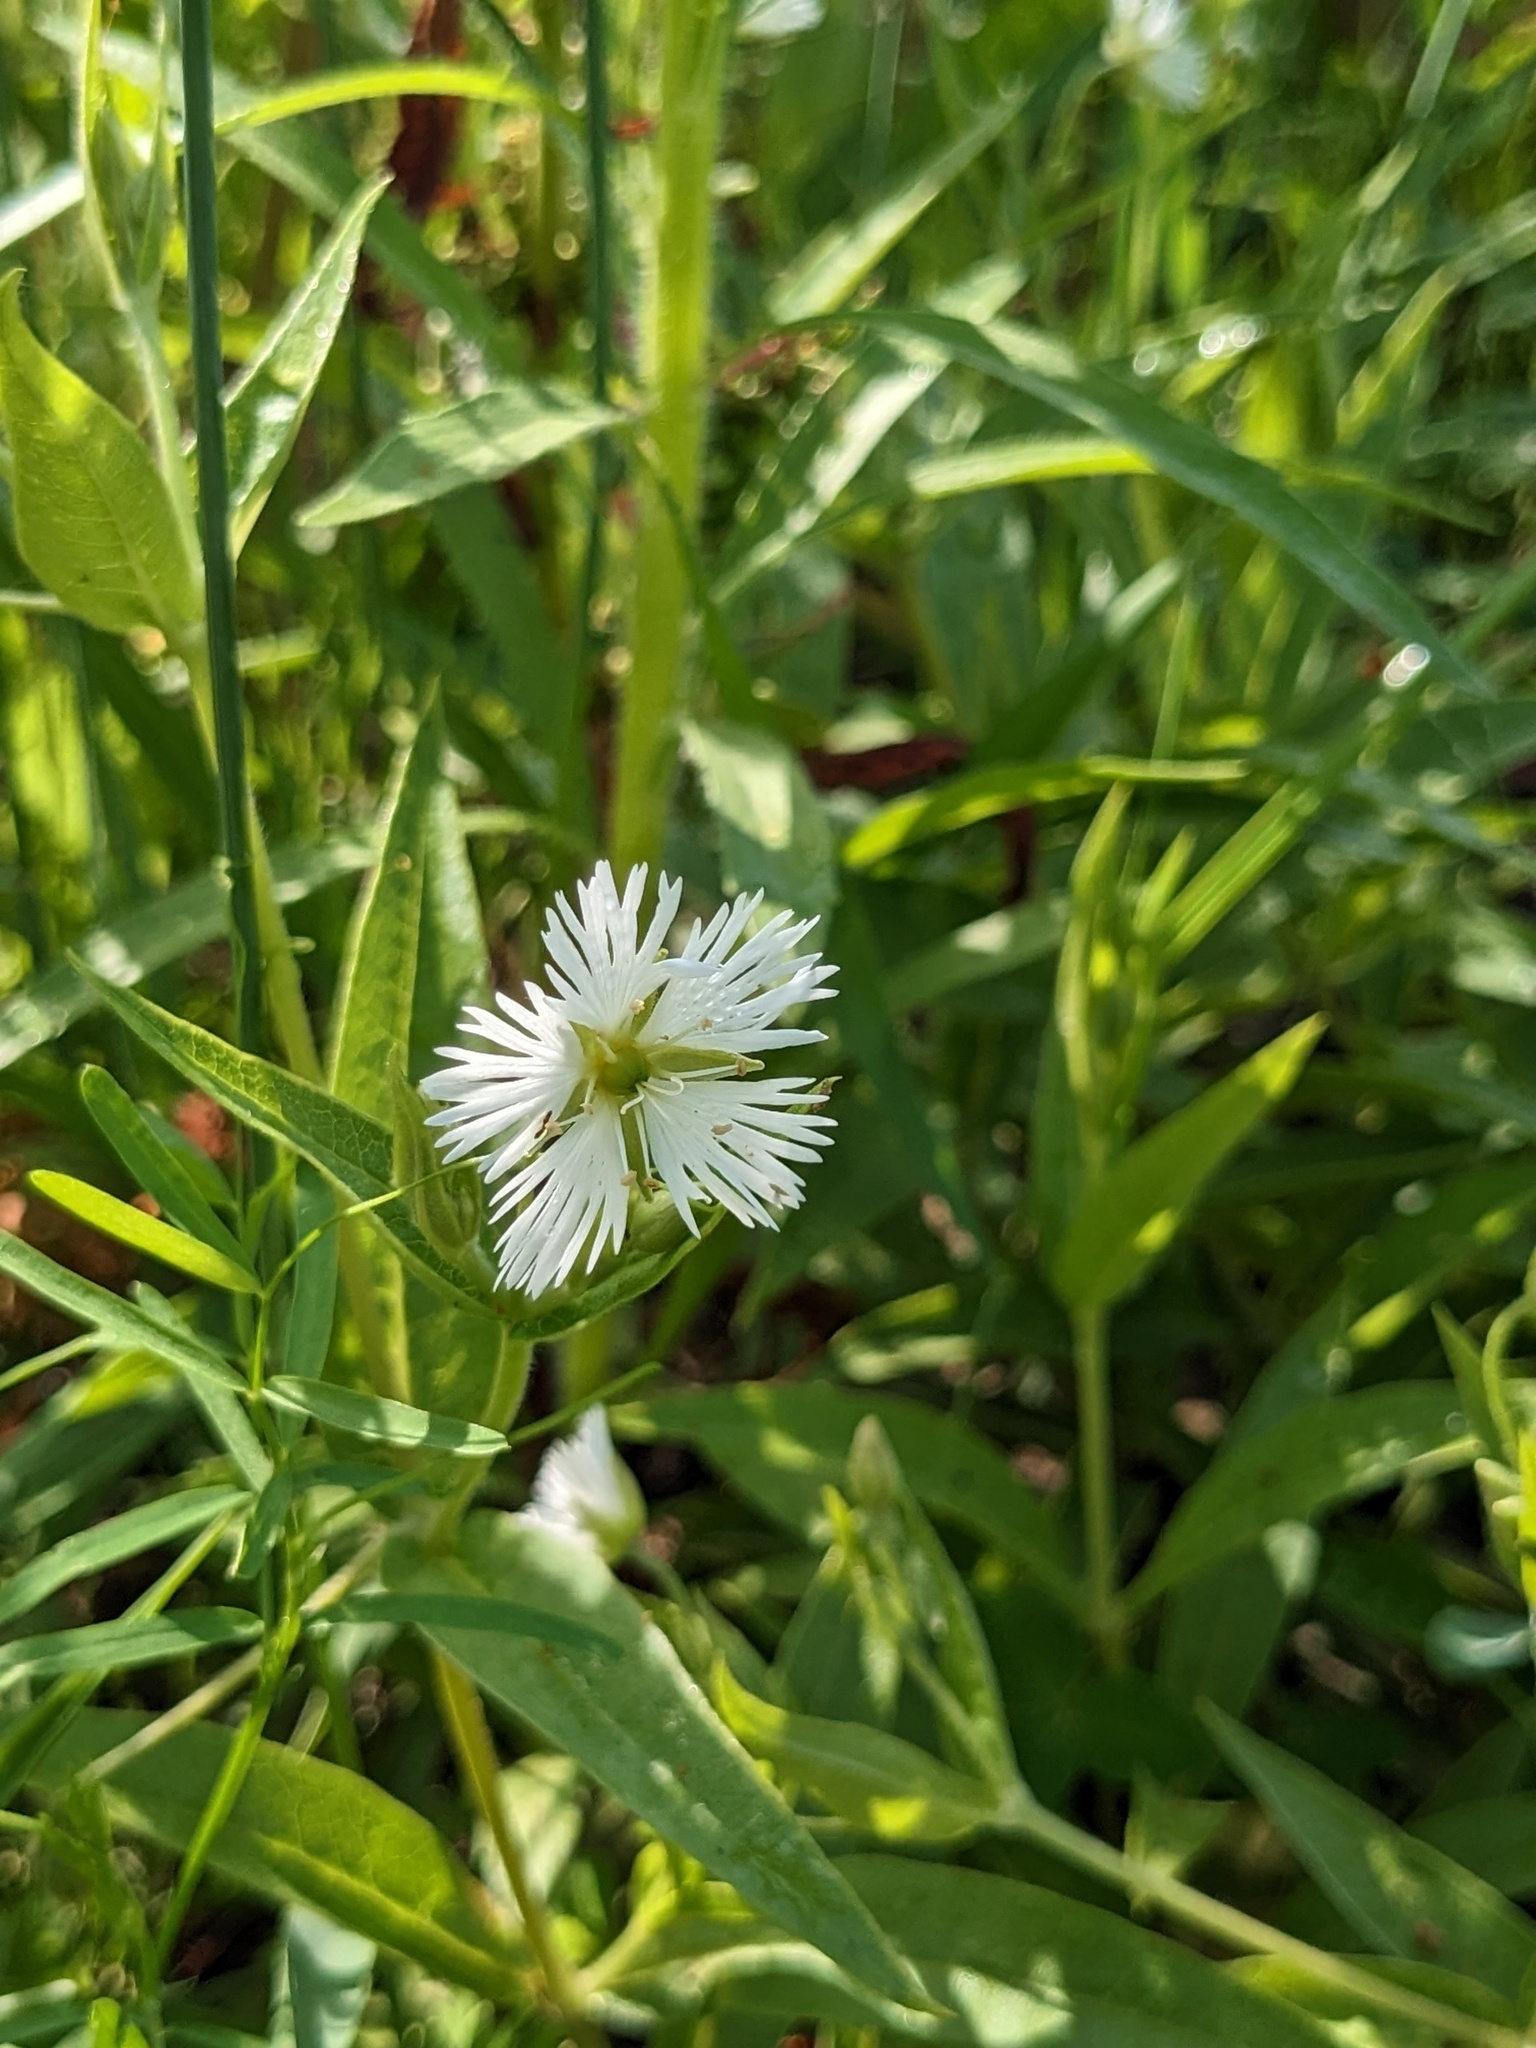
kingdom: Plantae
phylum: Tracheophyta
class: Magnoliopsida
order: Caryophyllales
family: Caryophyllaceae
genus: Stellaria
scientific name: Stellaria radians
